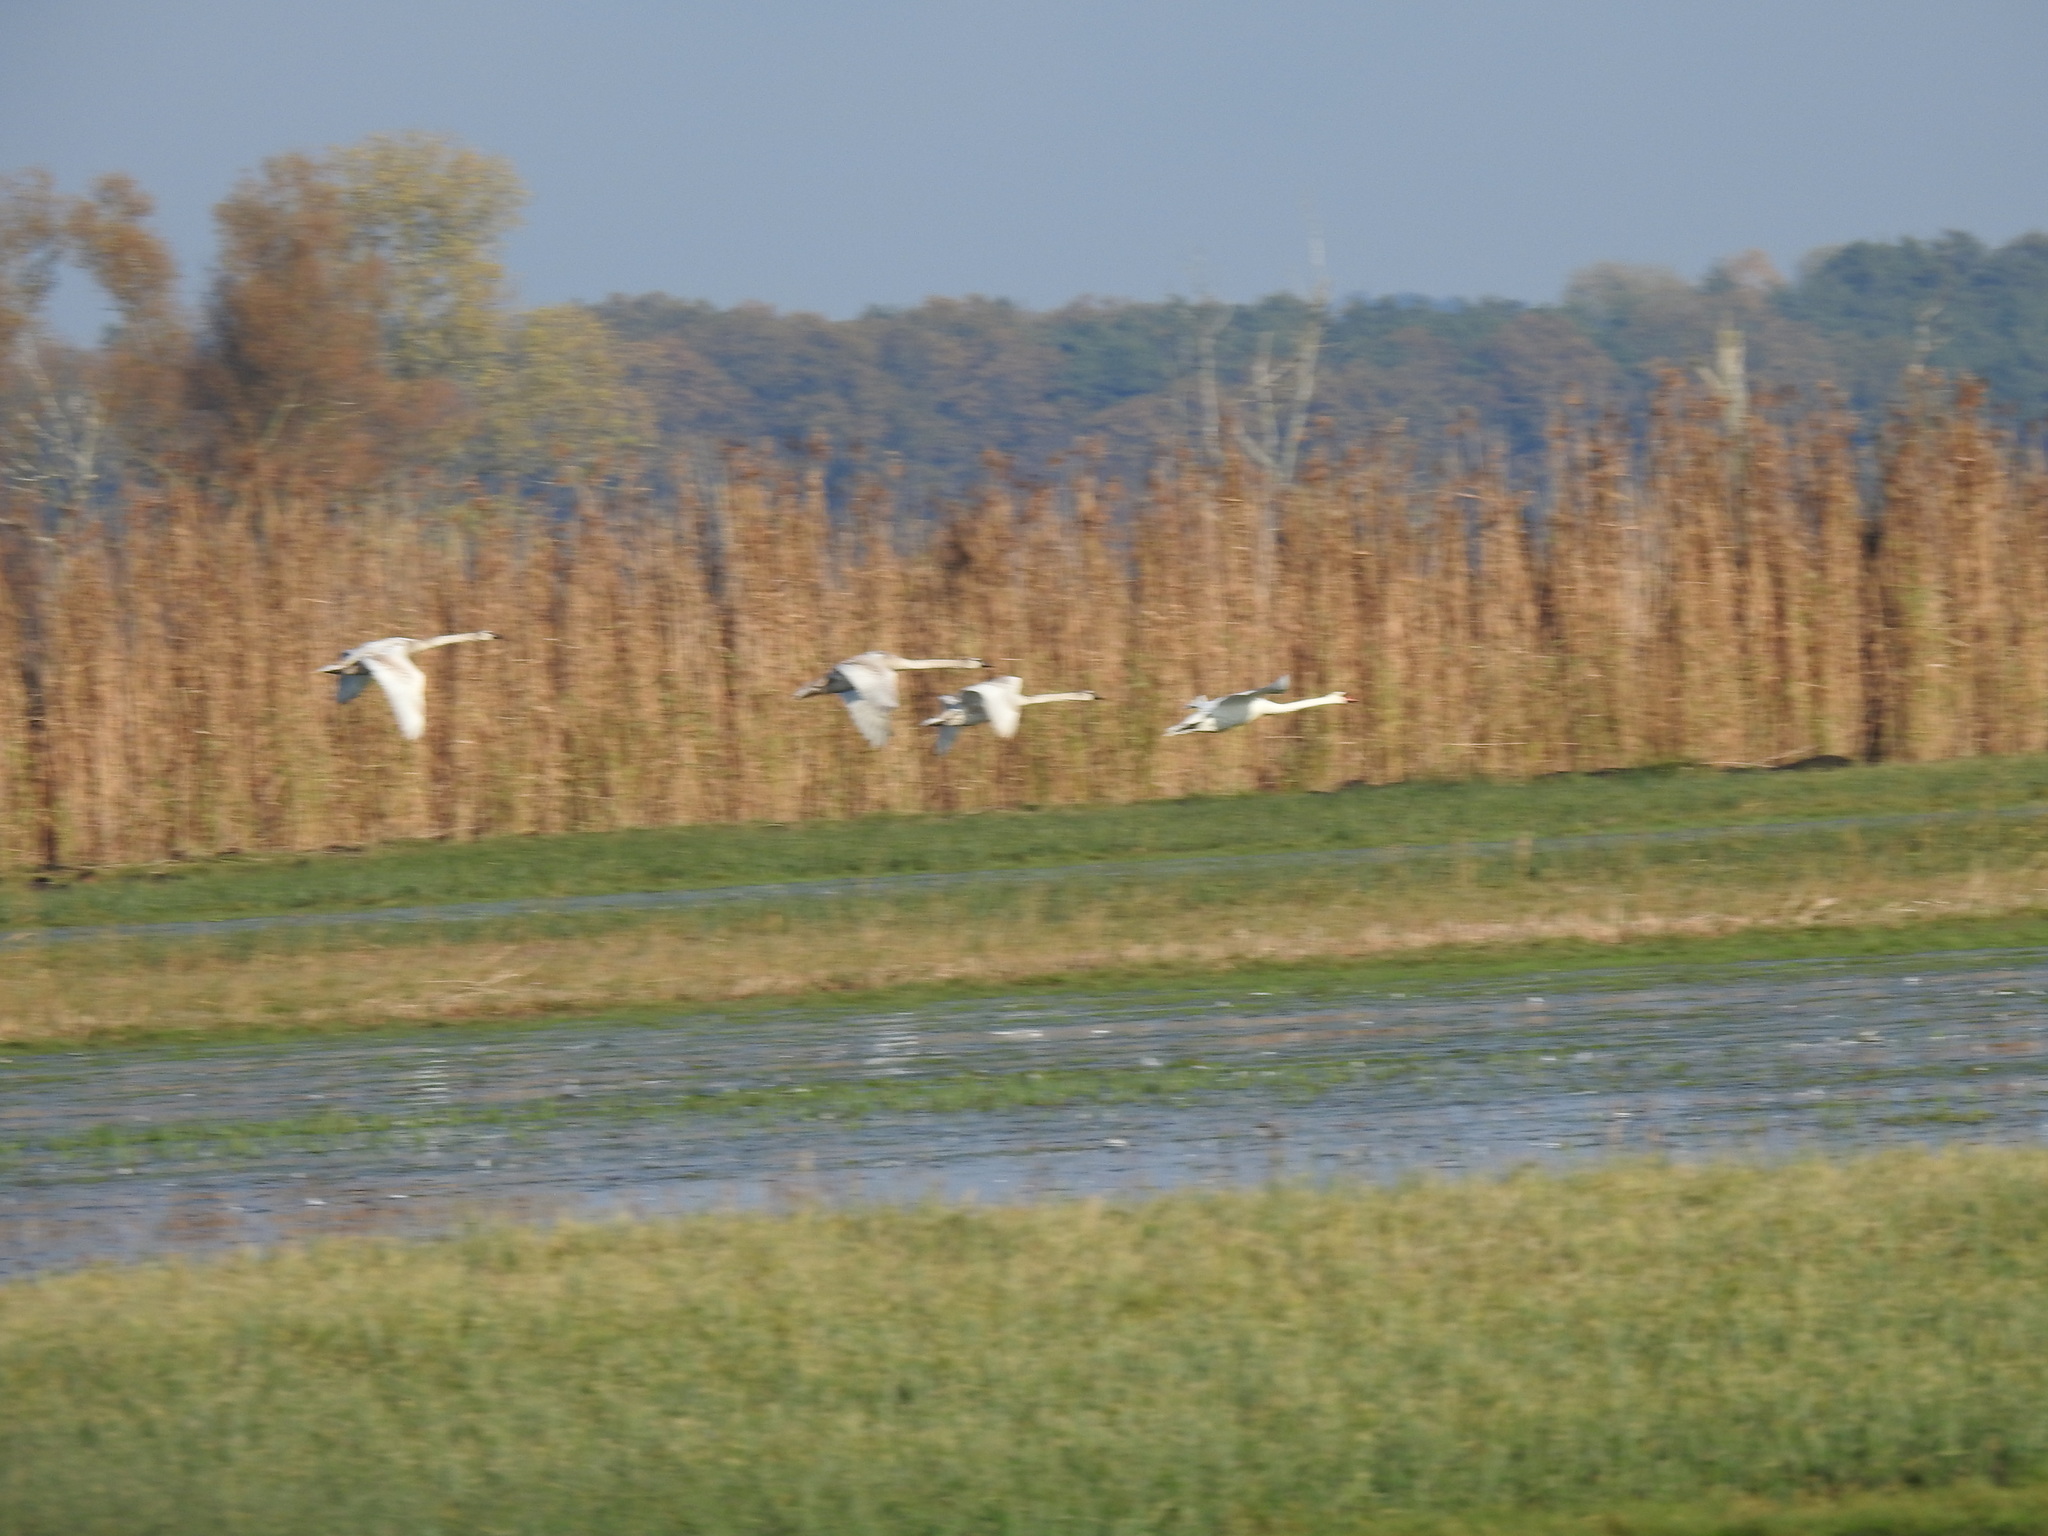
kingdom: Animalia
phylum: Chordata
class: Aves
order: Anseriformes
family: Anatidae
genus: Cygnus
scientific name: Cygnus olor
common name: Mute swan
